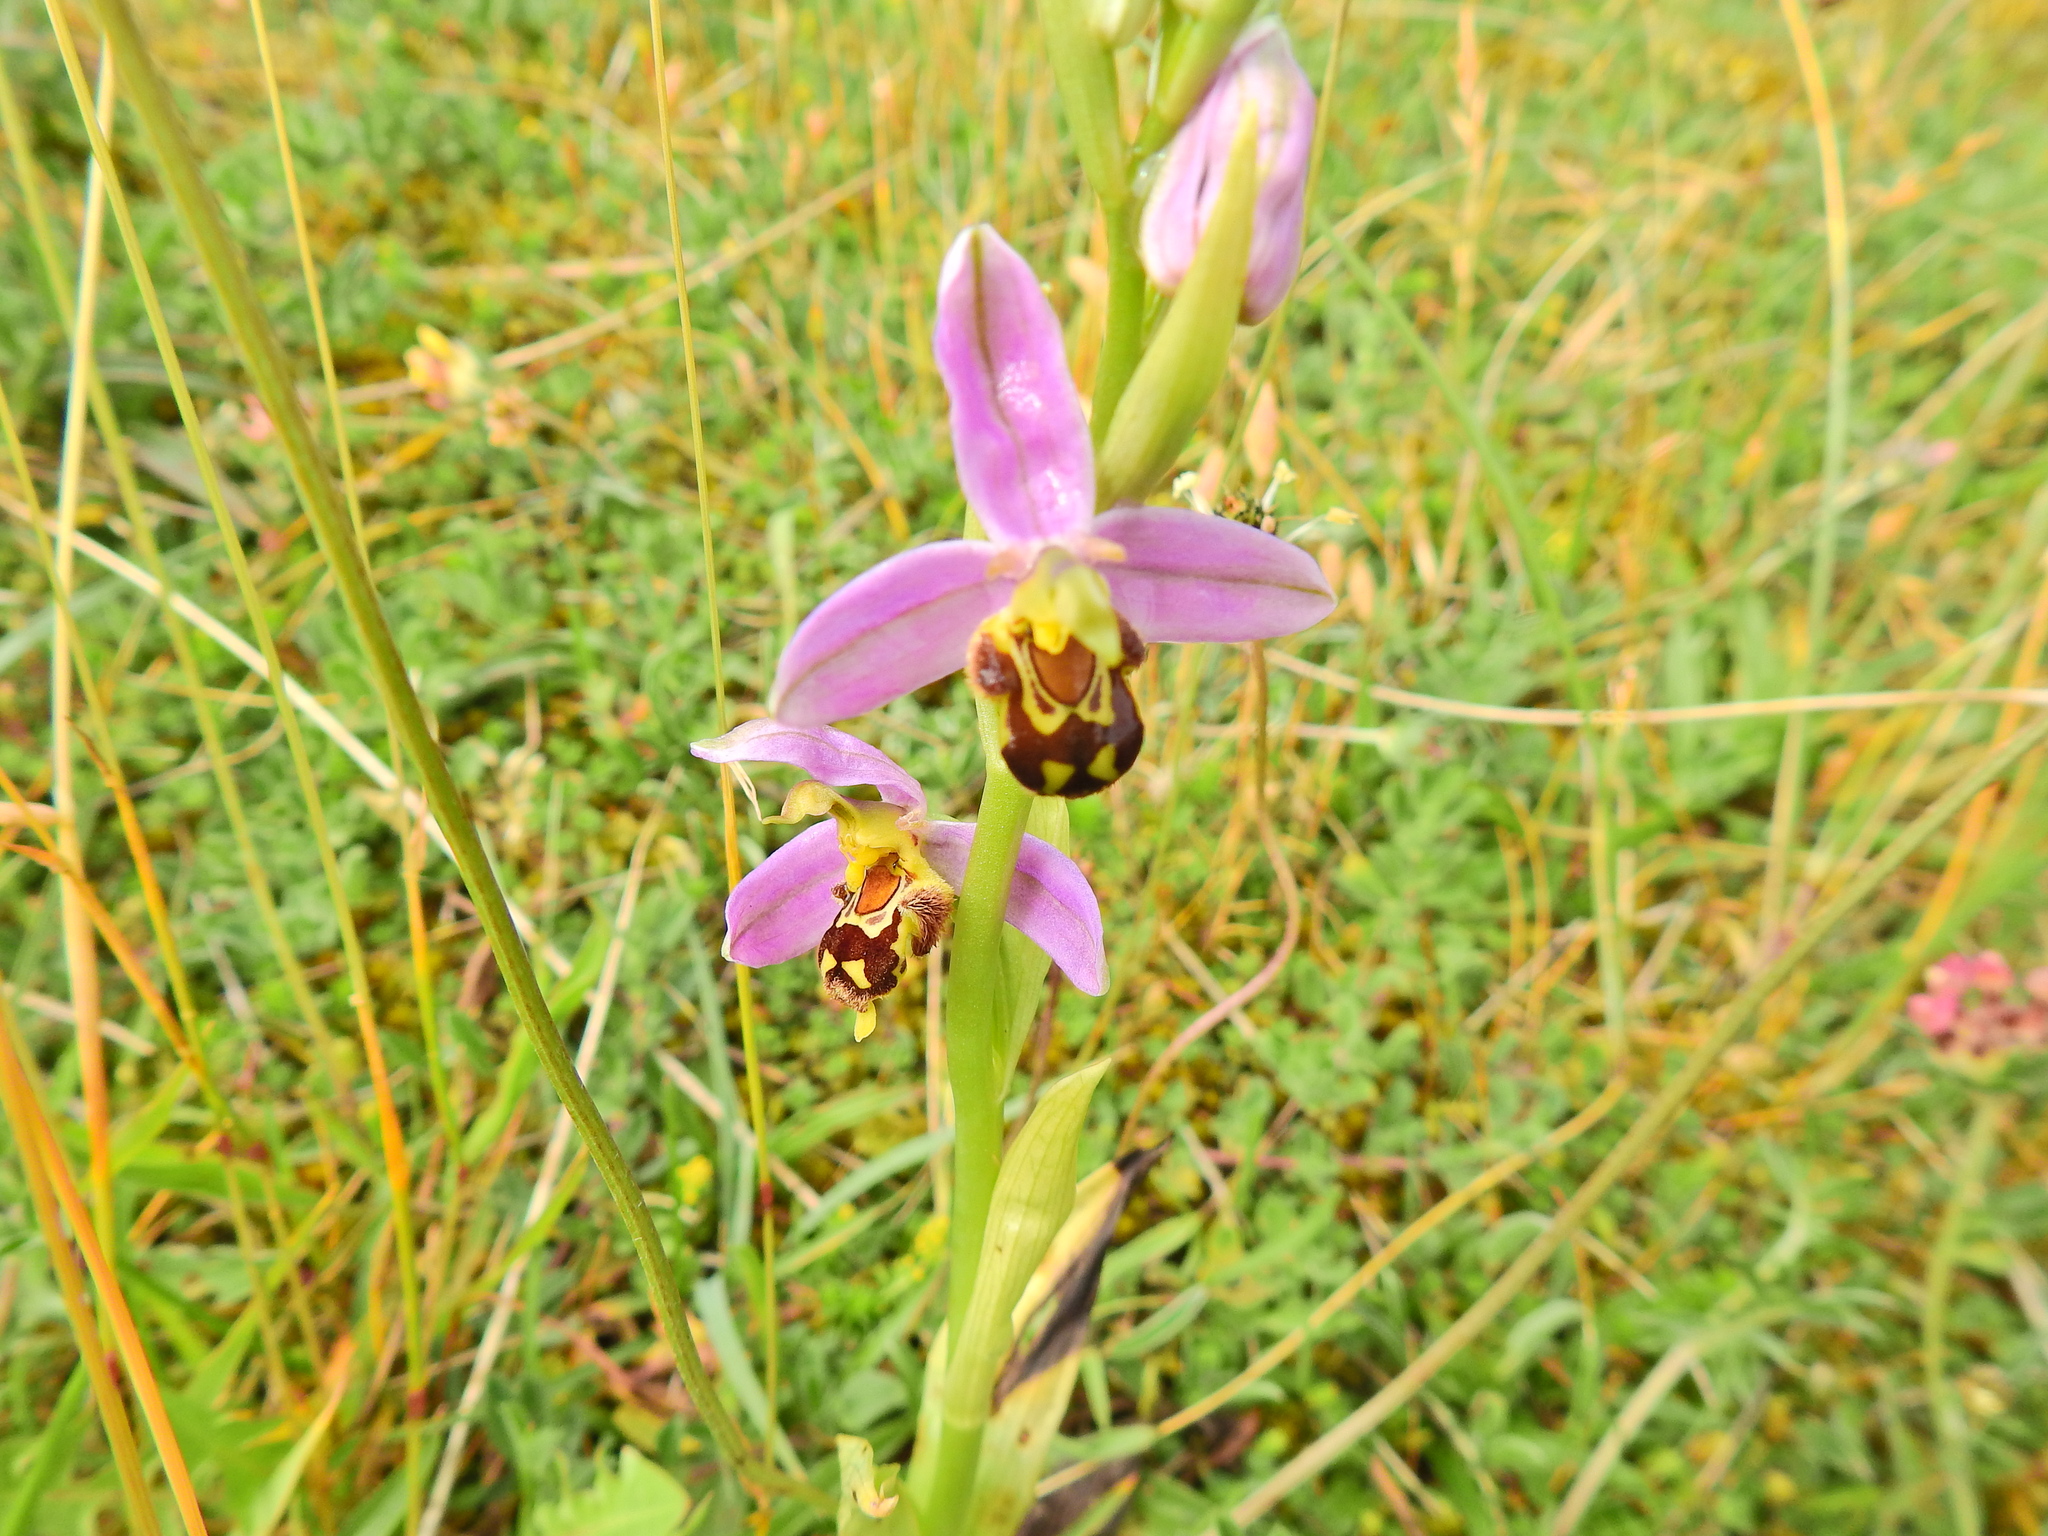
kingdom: Plantae
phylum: Tracheophyta
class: Liliopsida
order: Asparagales
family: Orchidaceae
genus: Ophrys
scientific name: Ophrys apifera
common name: Bee orchid
